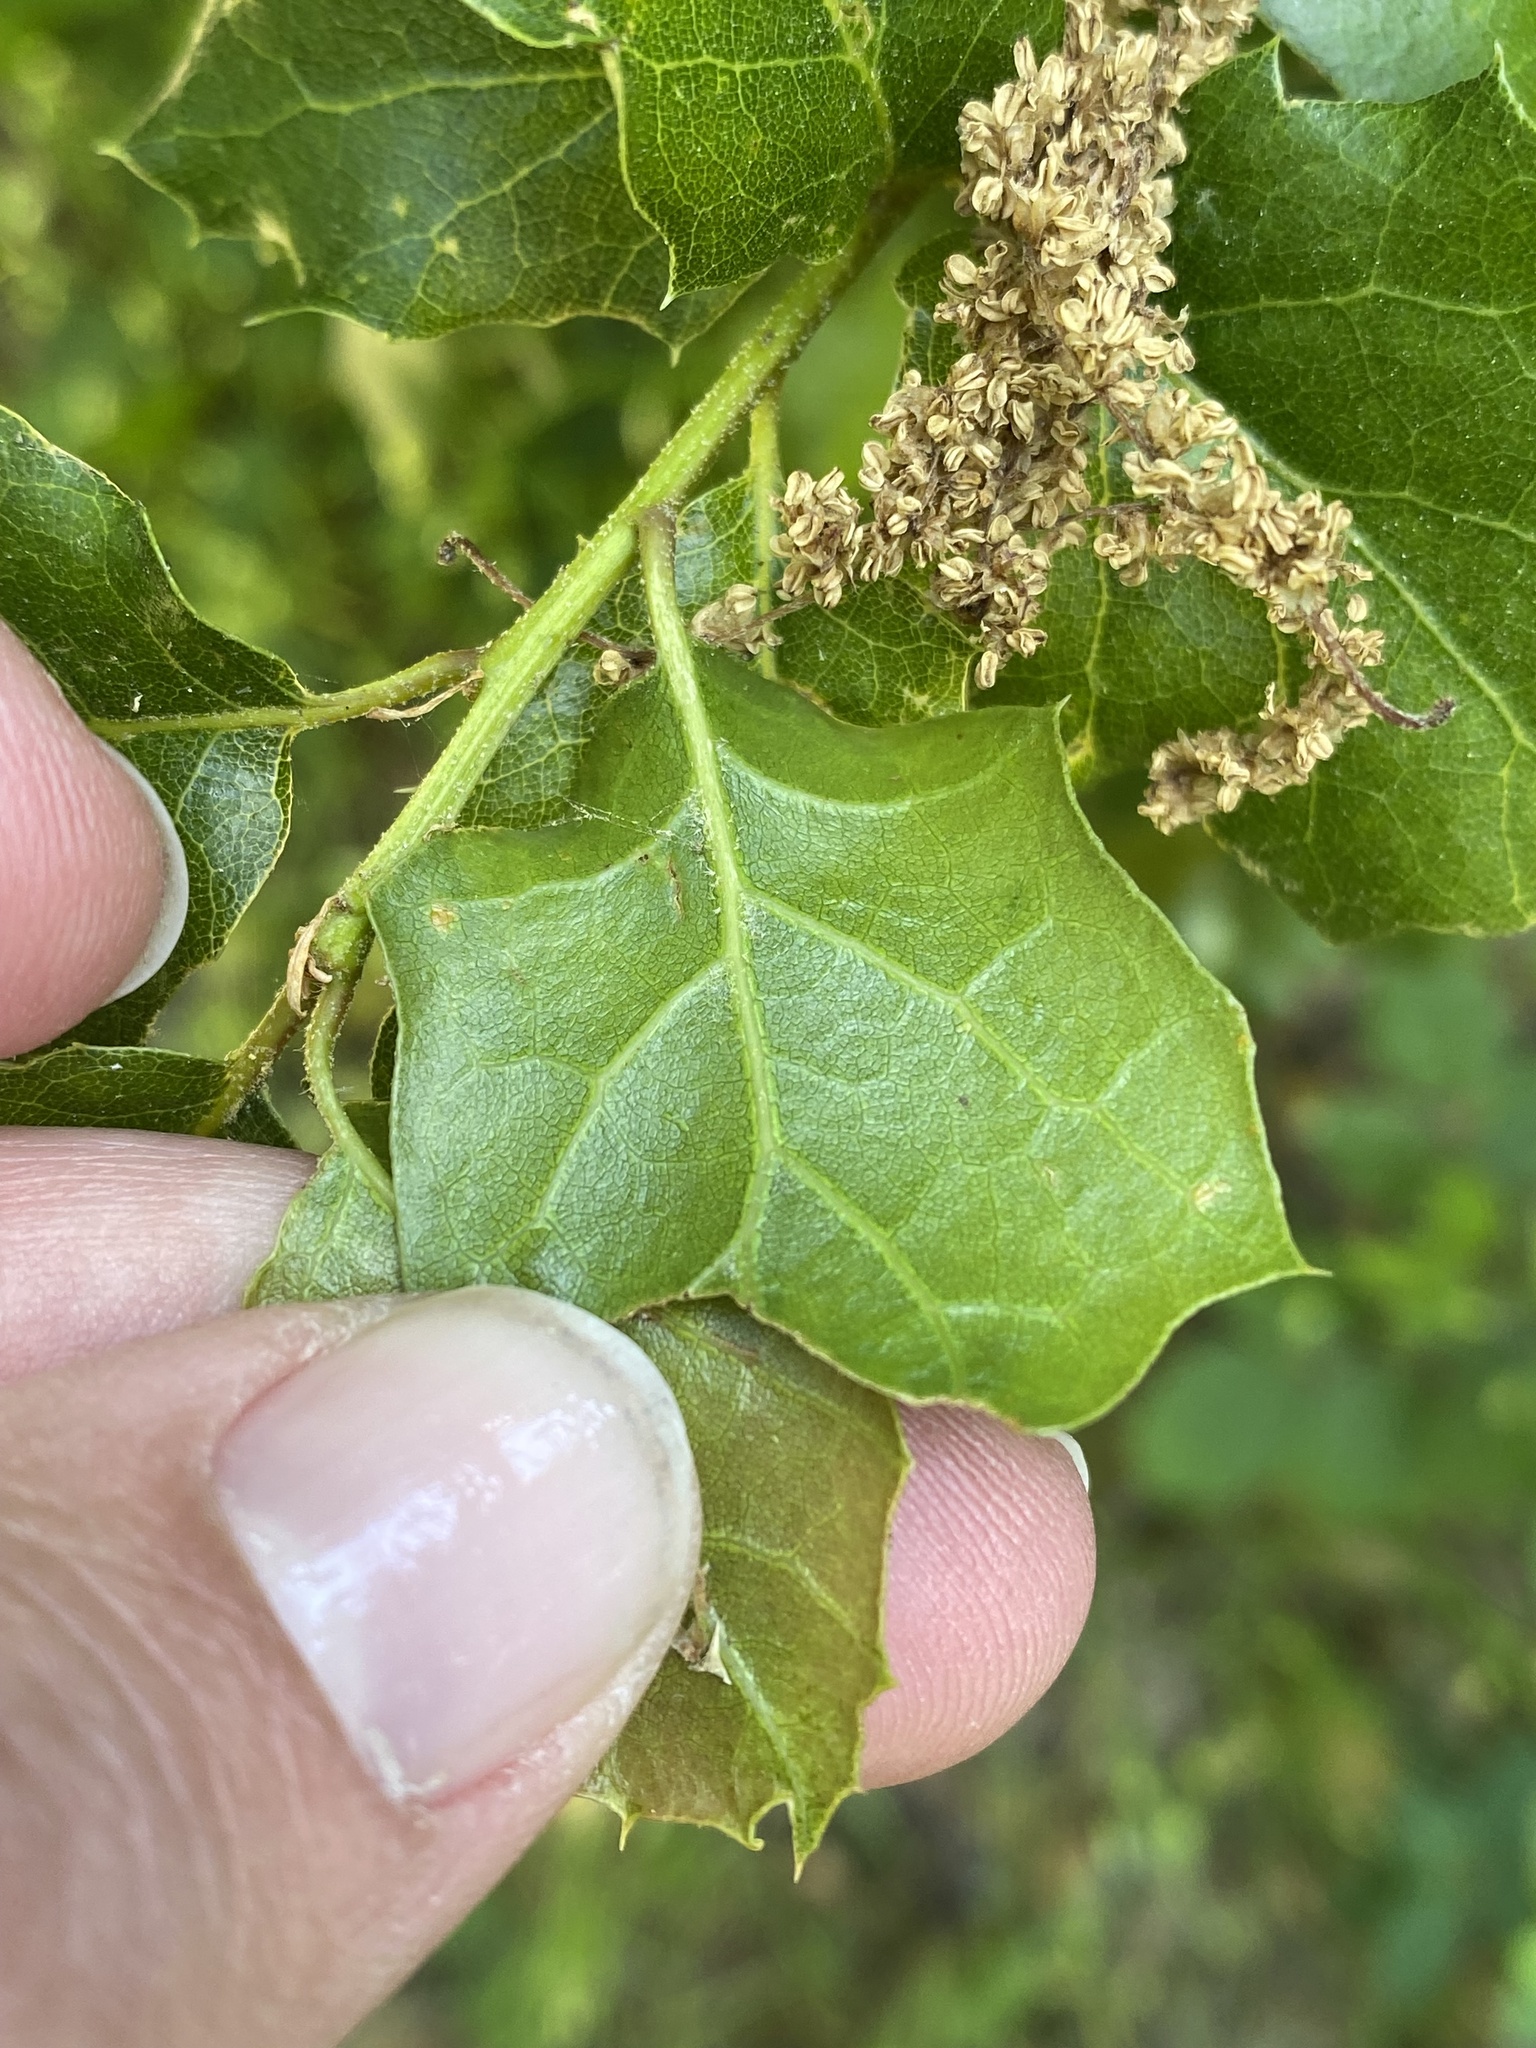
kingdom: Plantae
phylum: Tracheophyta
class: Magnoliopsida
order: Fagales
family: Fagaceae
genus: Quercus
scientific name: Quercus agrifolia
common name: California live oak
